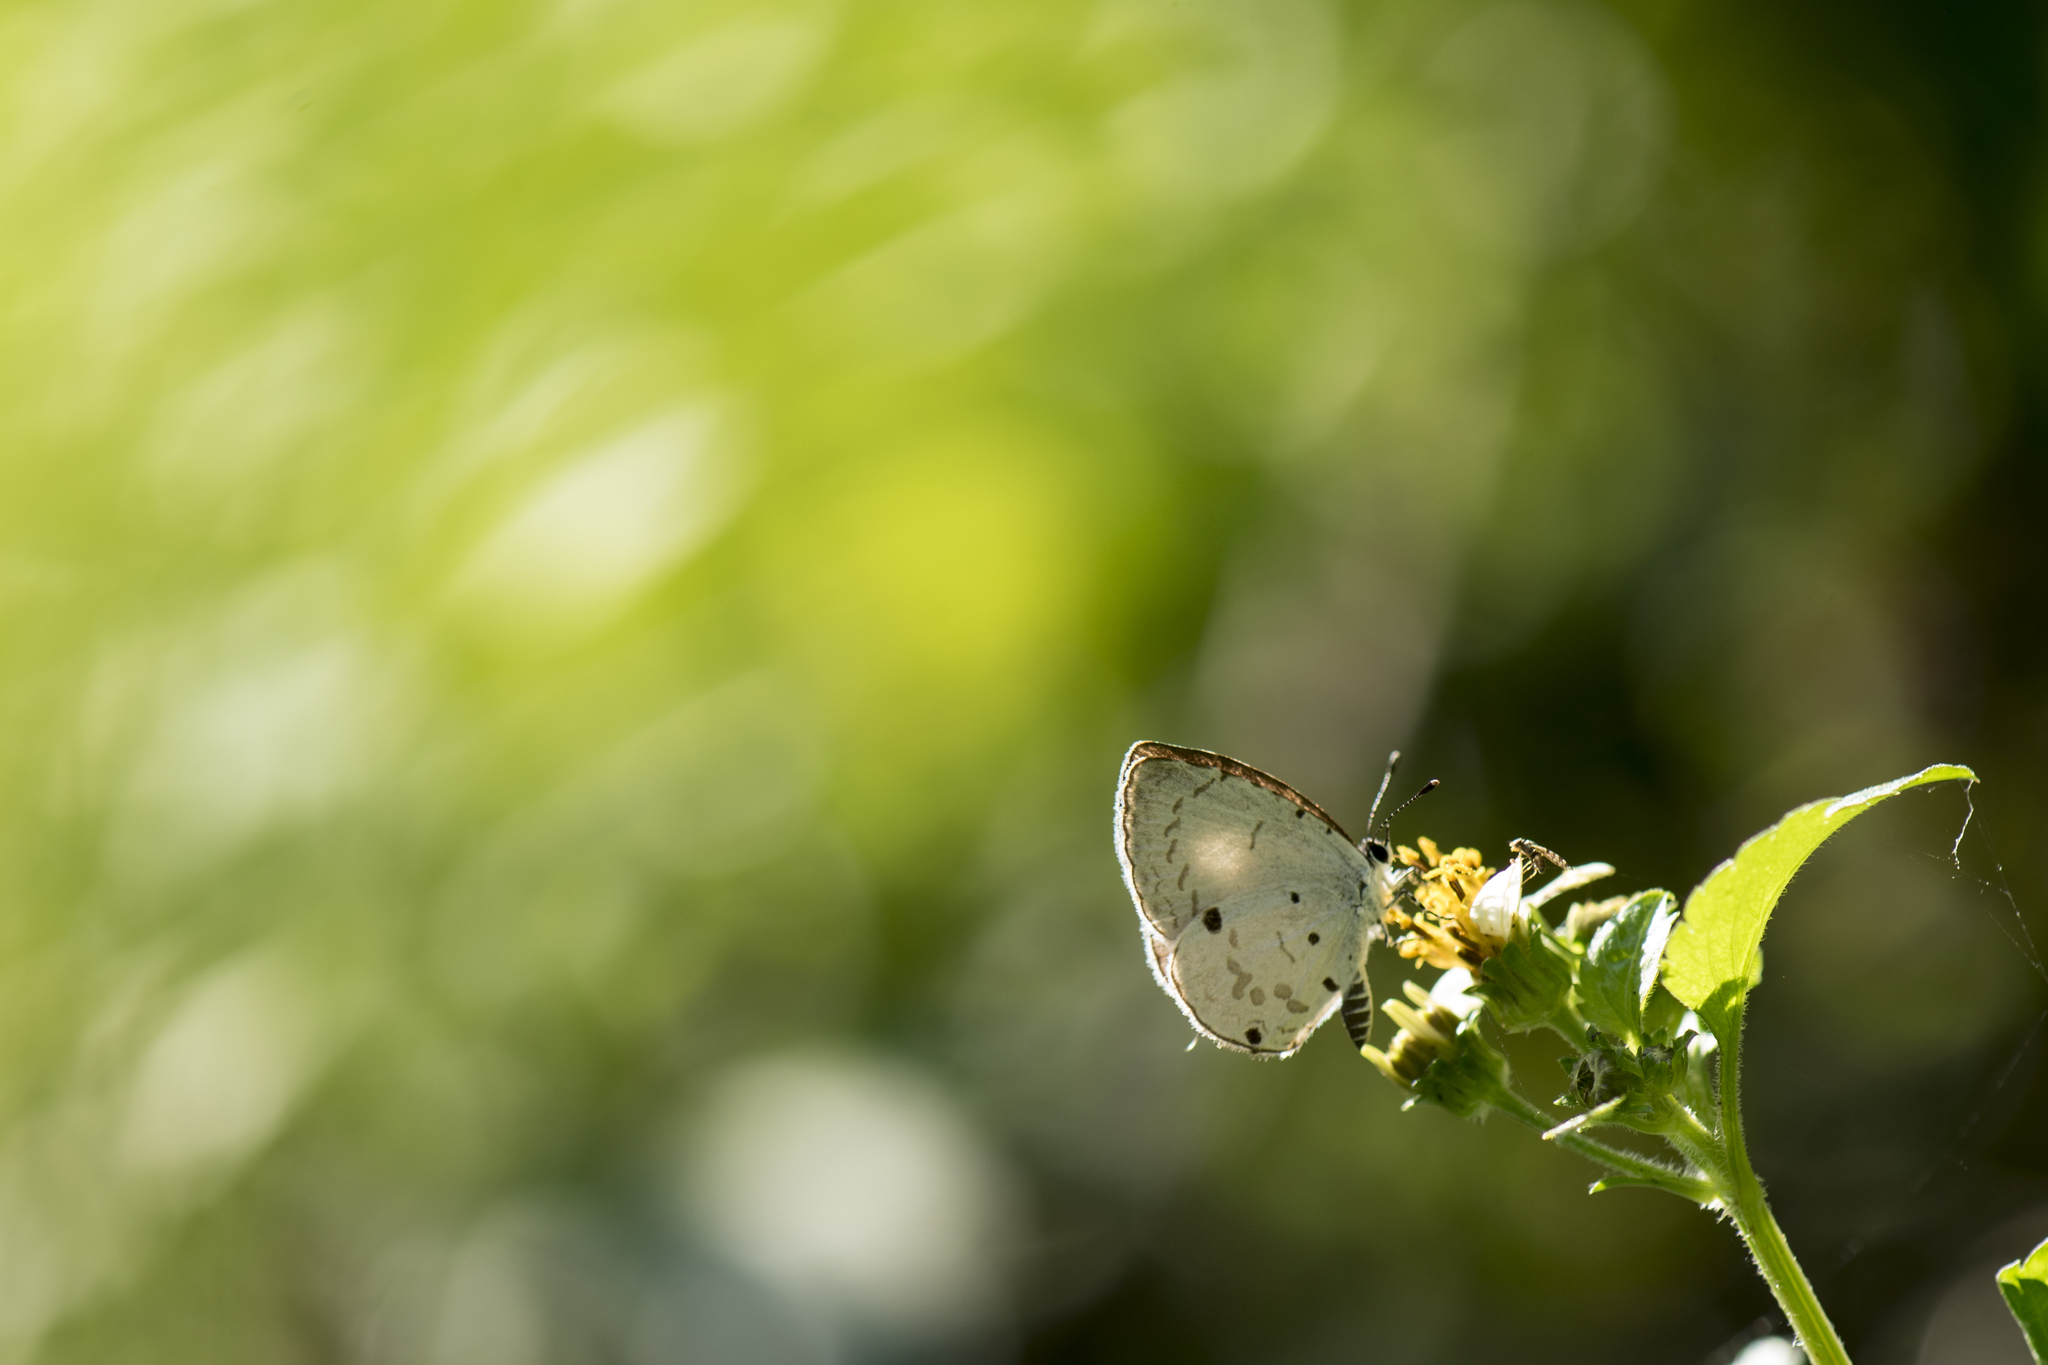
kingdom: Animalia
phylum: Arthropoda
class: Insecta
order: Lepidoptera
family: Lycaenidae
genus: Megisba
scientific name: Megisba malaya
